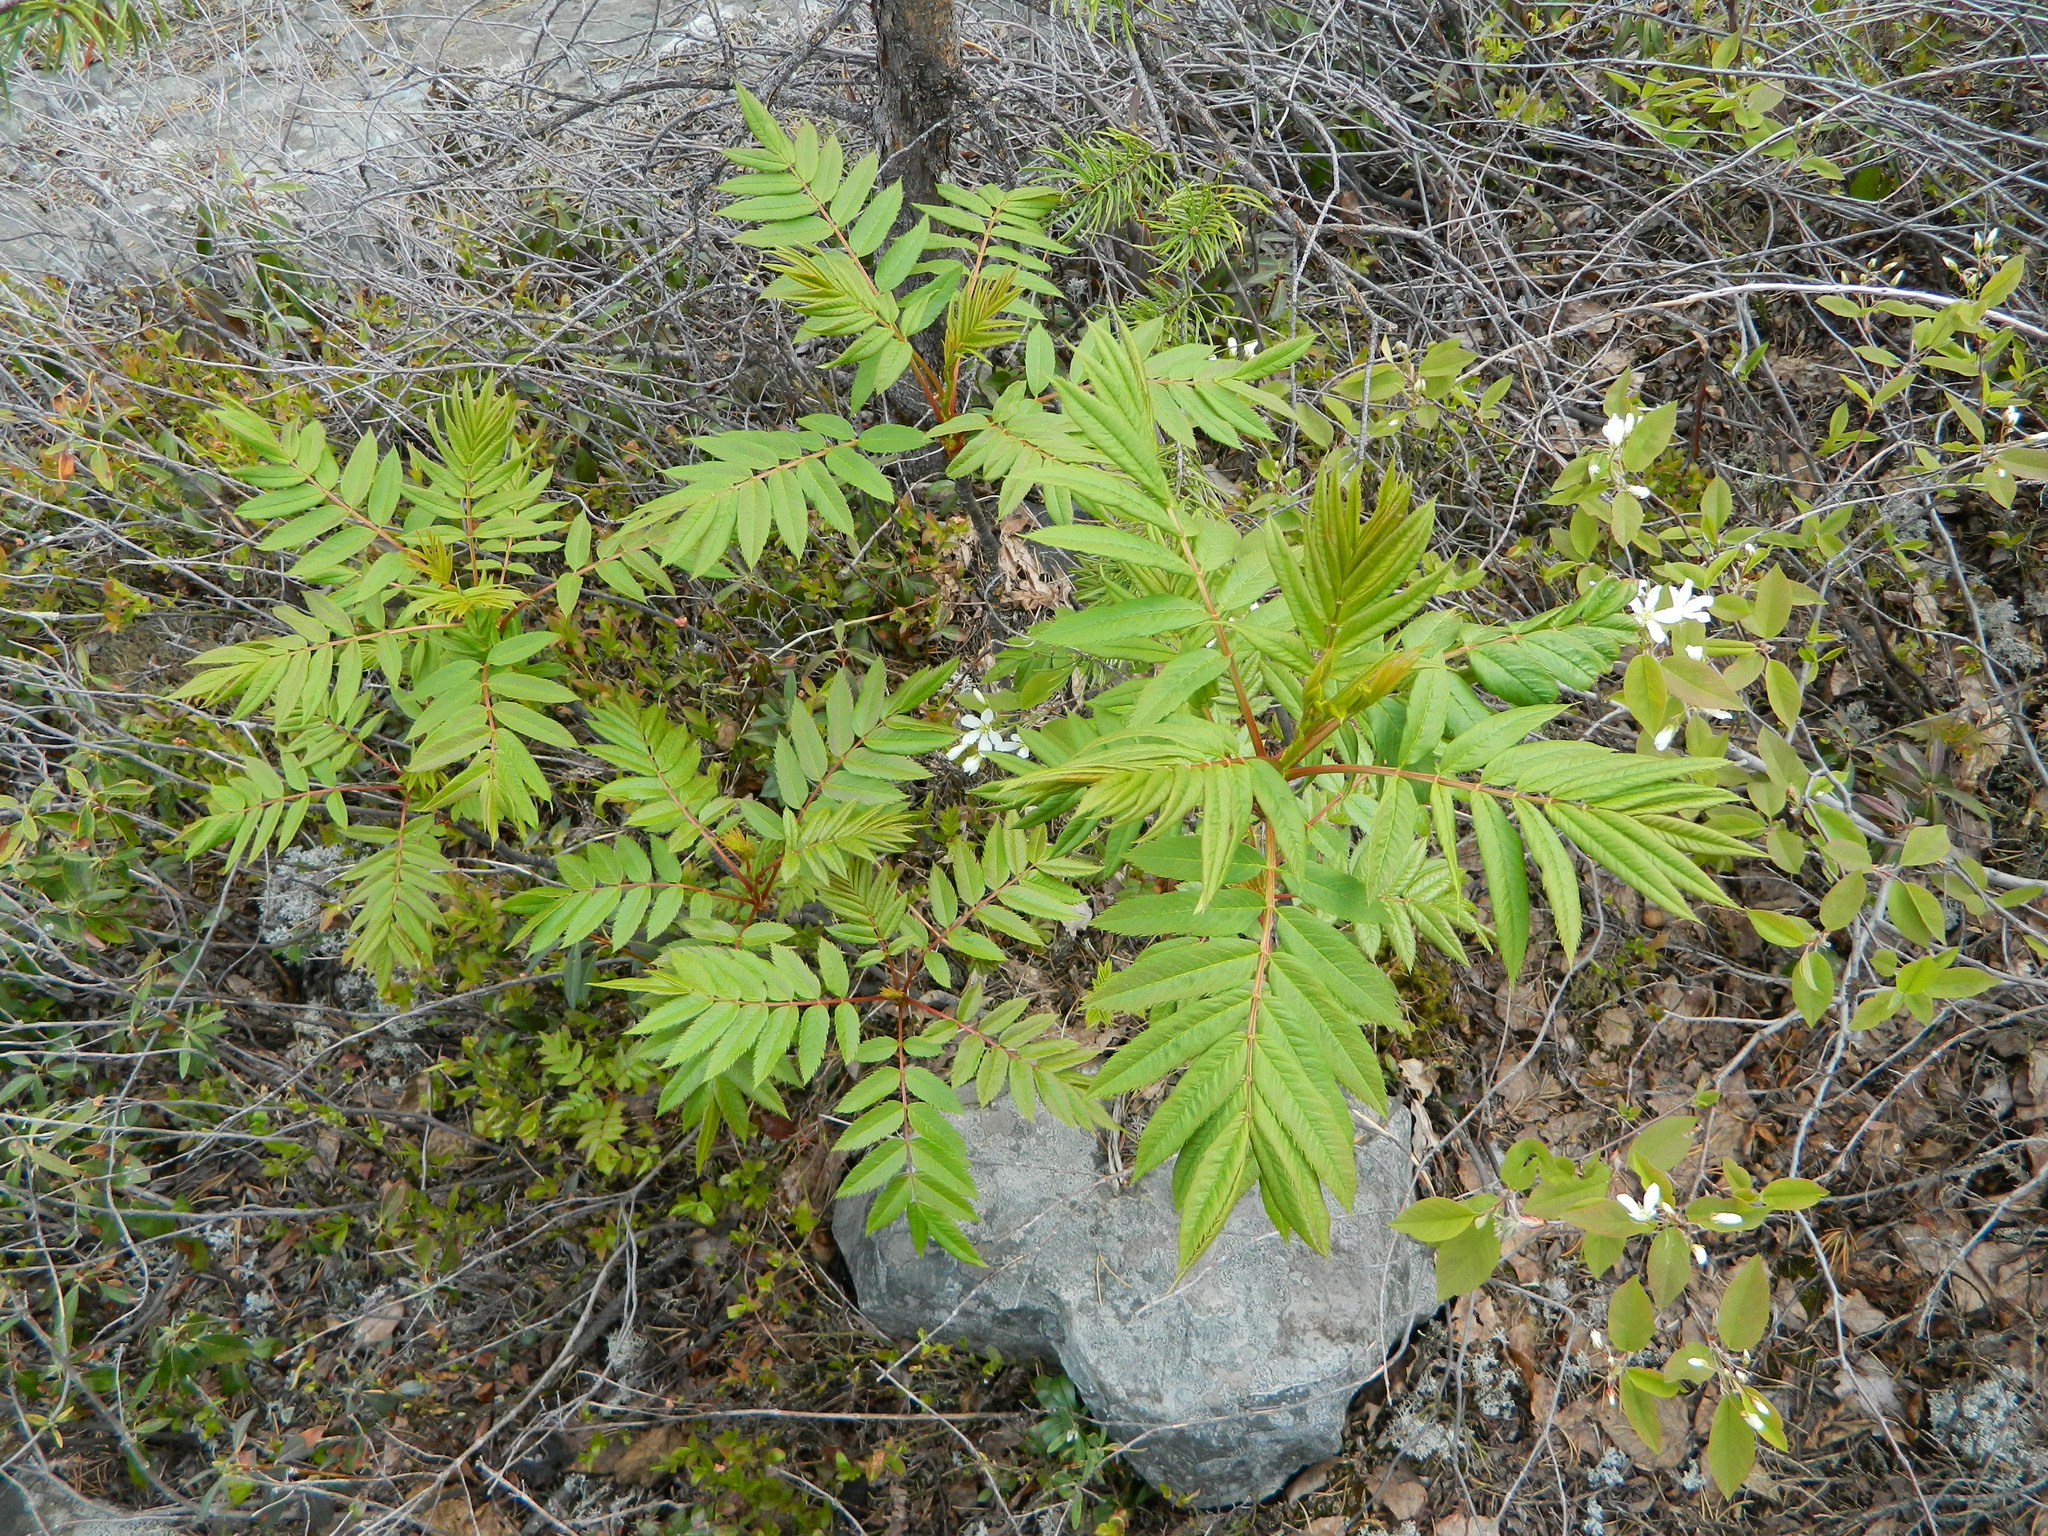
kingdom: Plantae
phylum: Tracheophyta
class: Magnoliopsida
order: Rosales
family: Rosaceae
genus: Sorbus
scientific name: Sorbus americana
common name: American mountain-ash
